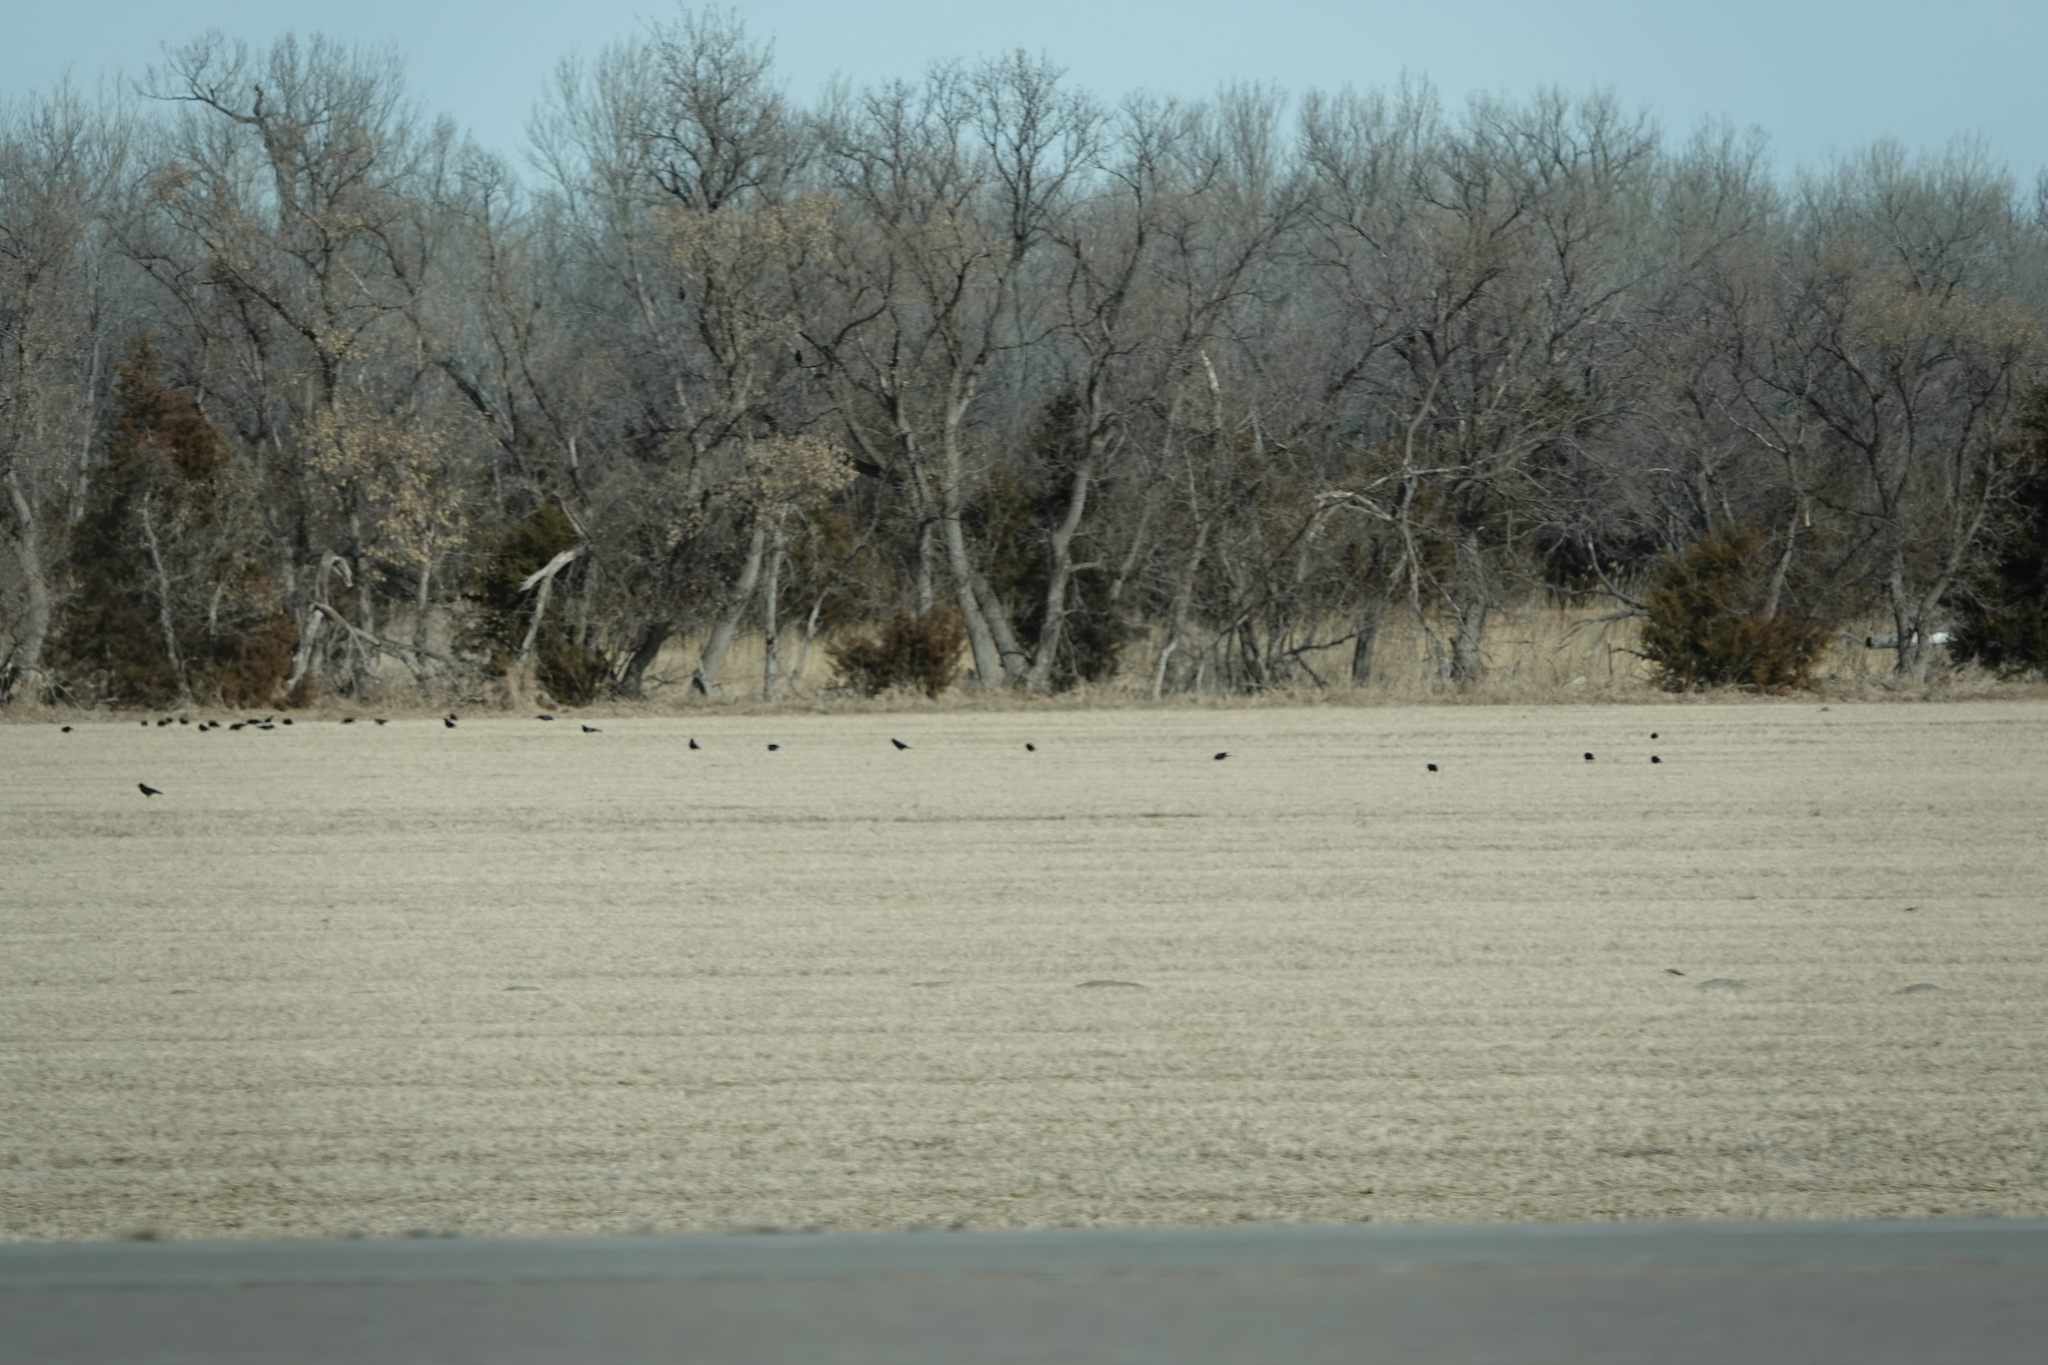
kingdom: Animalia
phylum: Chordata
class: Aves
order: Passeriformes
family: Corvidae
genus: Corvus
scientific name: Corvus brachyrhynchos
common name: American crow
